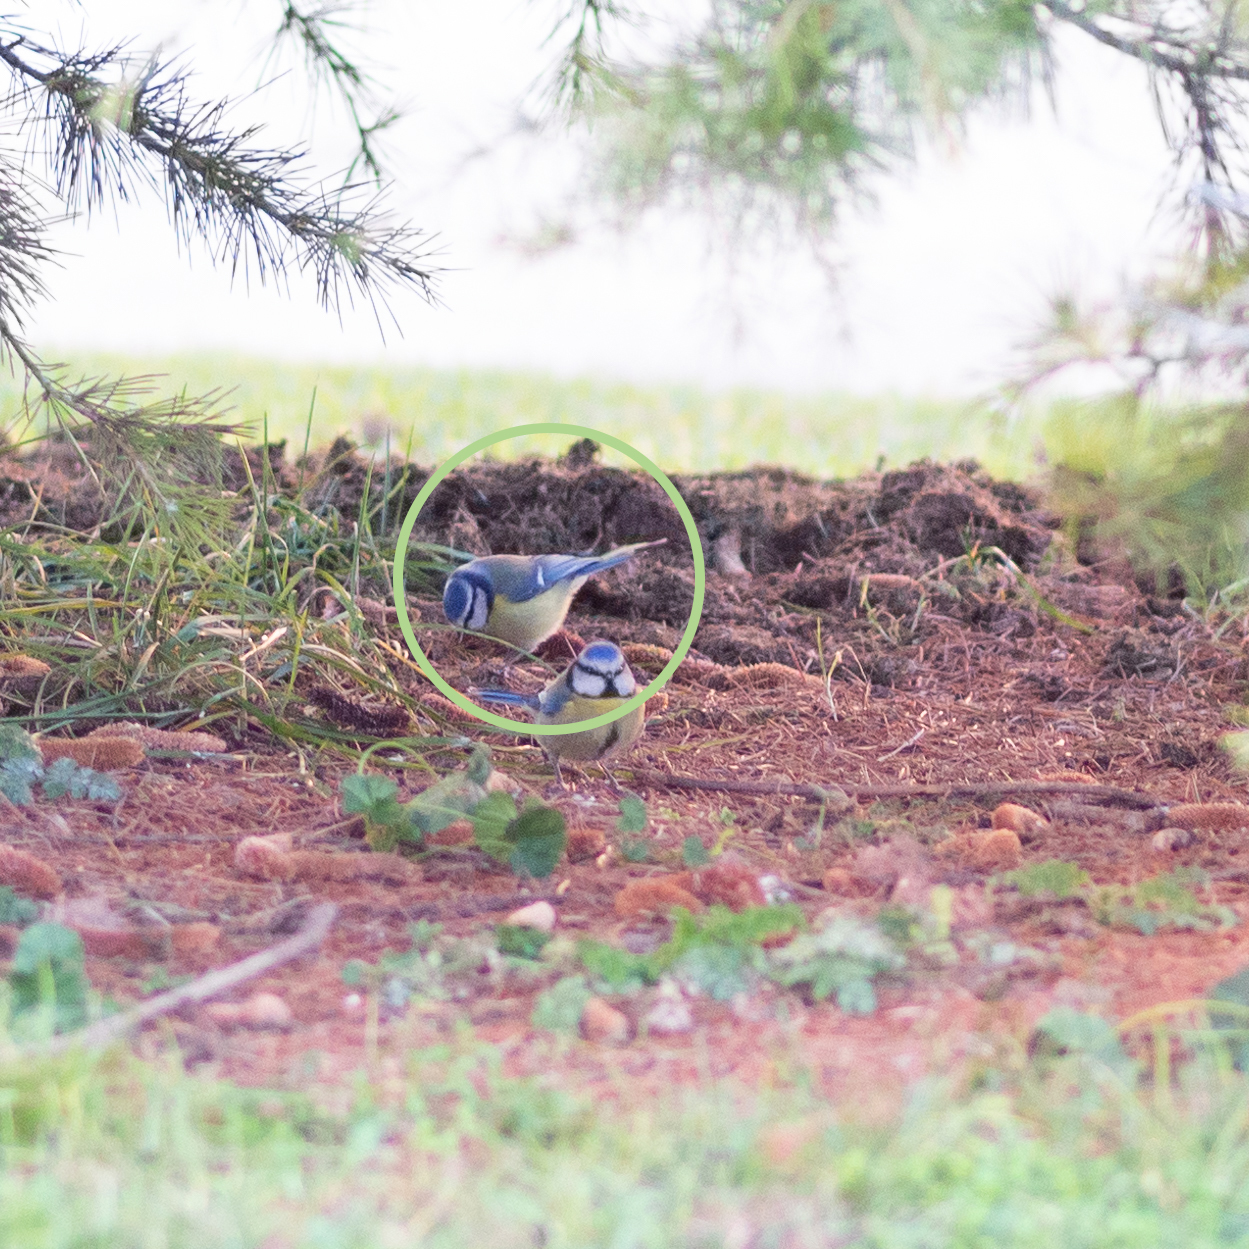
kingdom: Animalia
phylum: Chordata
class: Aves
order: Passeriformes
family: Paridae
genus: Cyanistes
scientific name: Cyanistes caeruleus
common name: Eurasian blue tit
